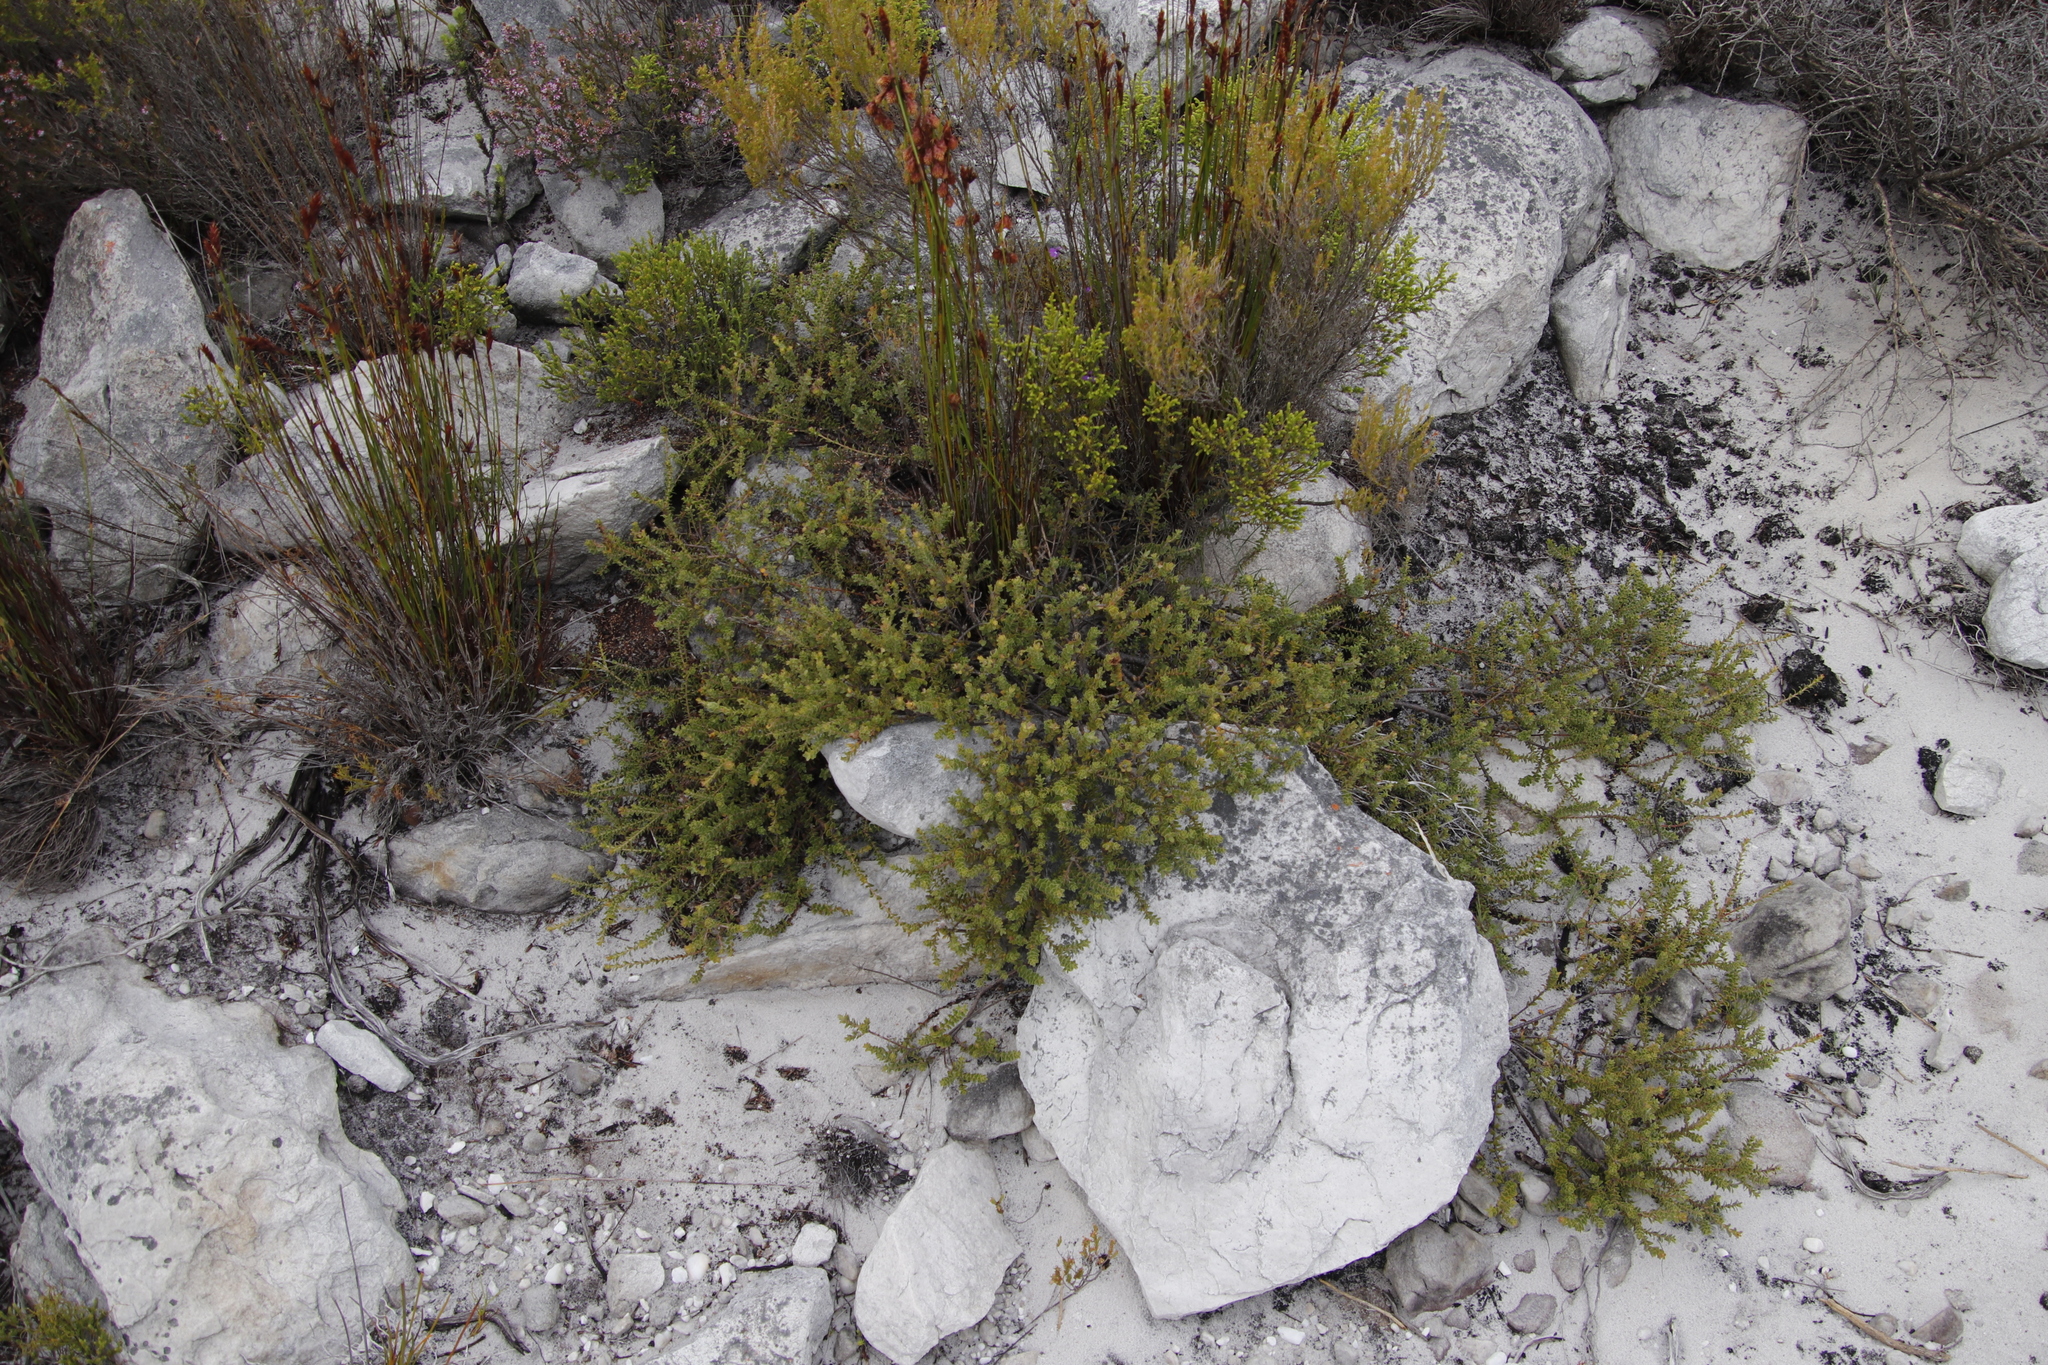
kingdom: Plantae
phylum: Tracheophyta
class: Magnoliopsida
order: Proteales
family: Proteaceae
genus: Diastella
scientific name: Diastella divaricata
